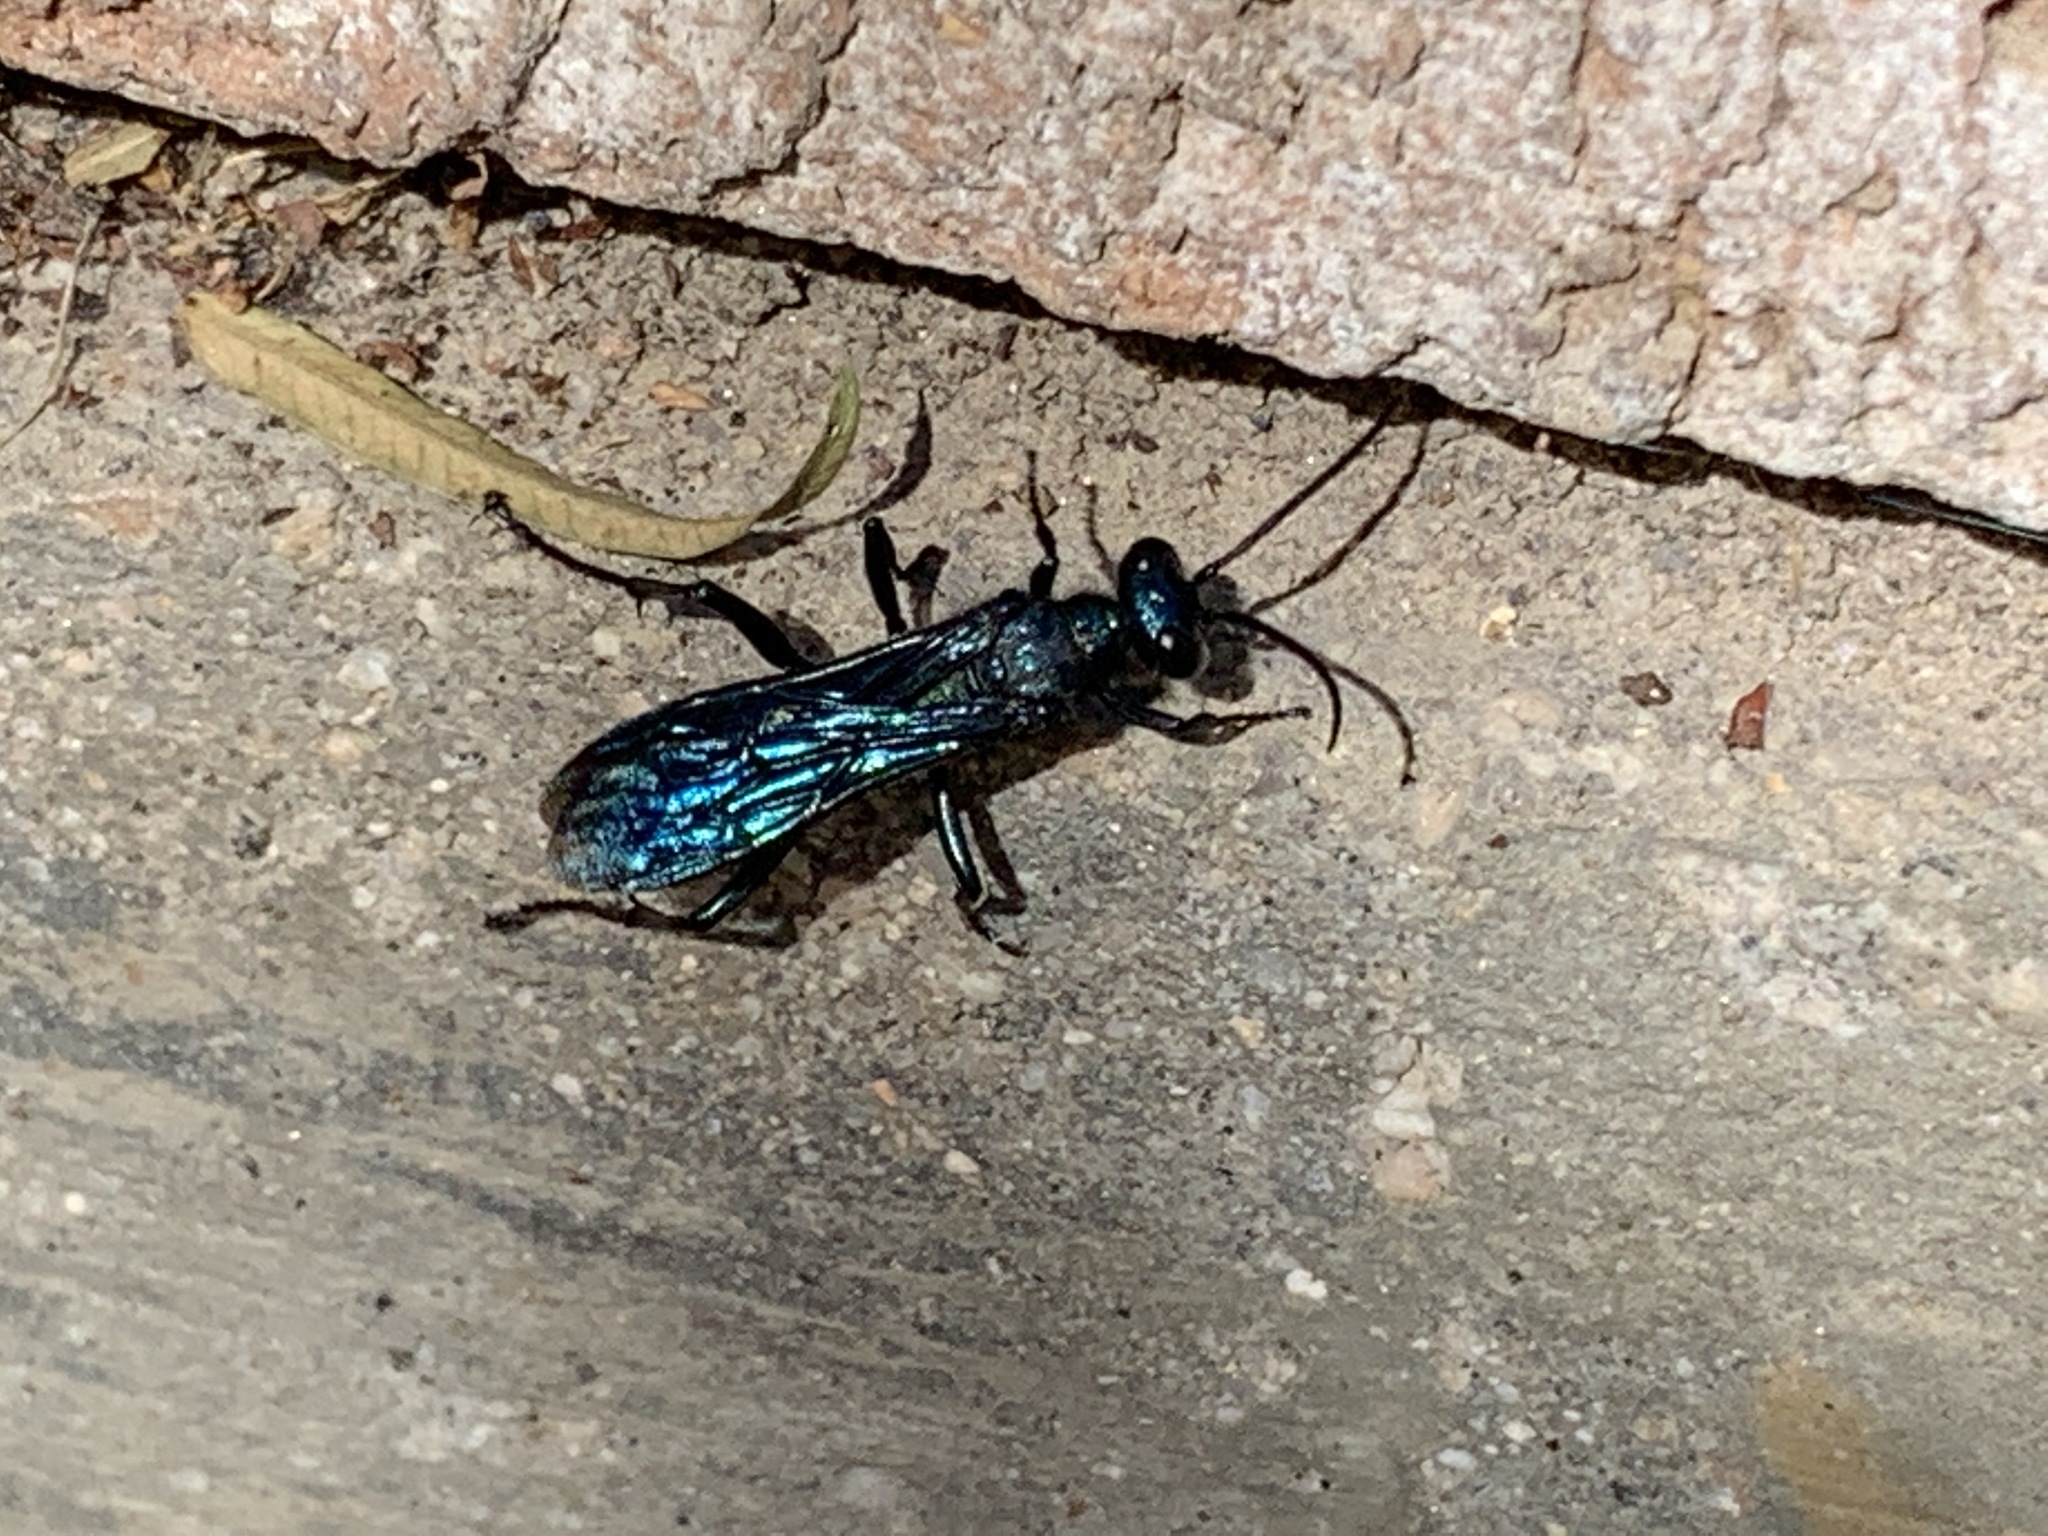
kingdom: Animalia
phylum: Arthropoda
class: Insecta
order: Hymenoptera
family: Sphecidae
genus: Chalybion
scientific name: Chalybion californicum
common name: Mud dauber
